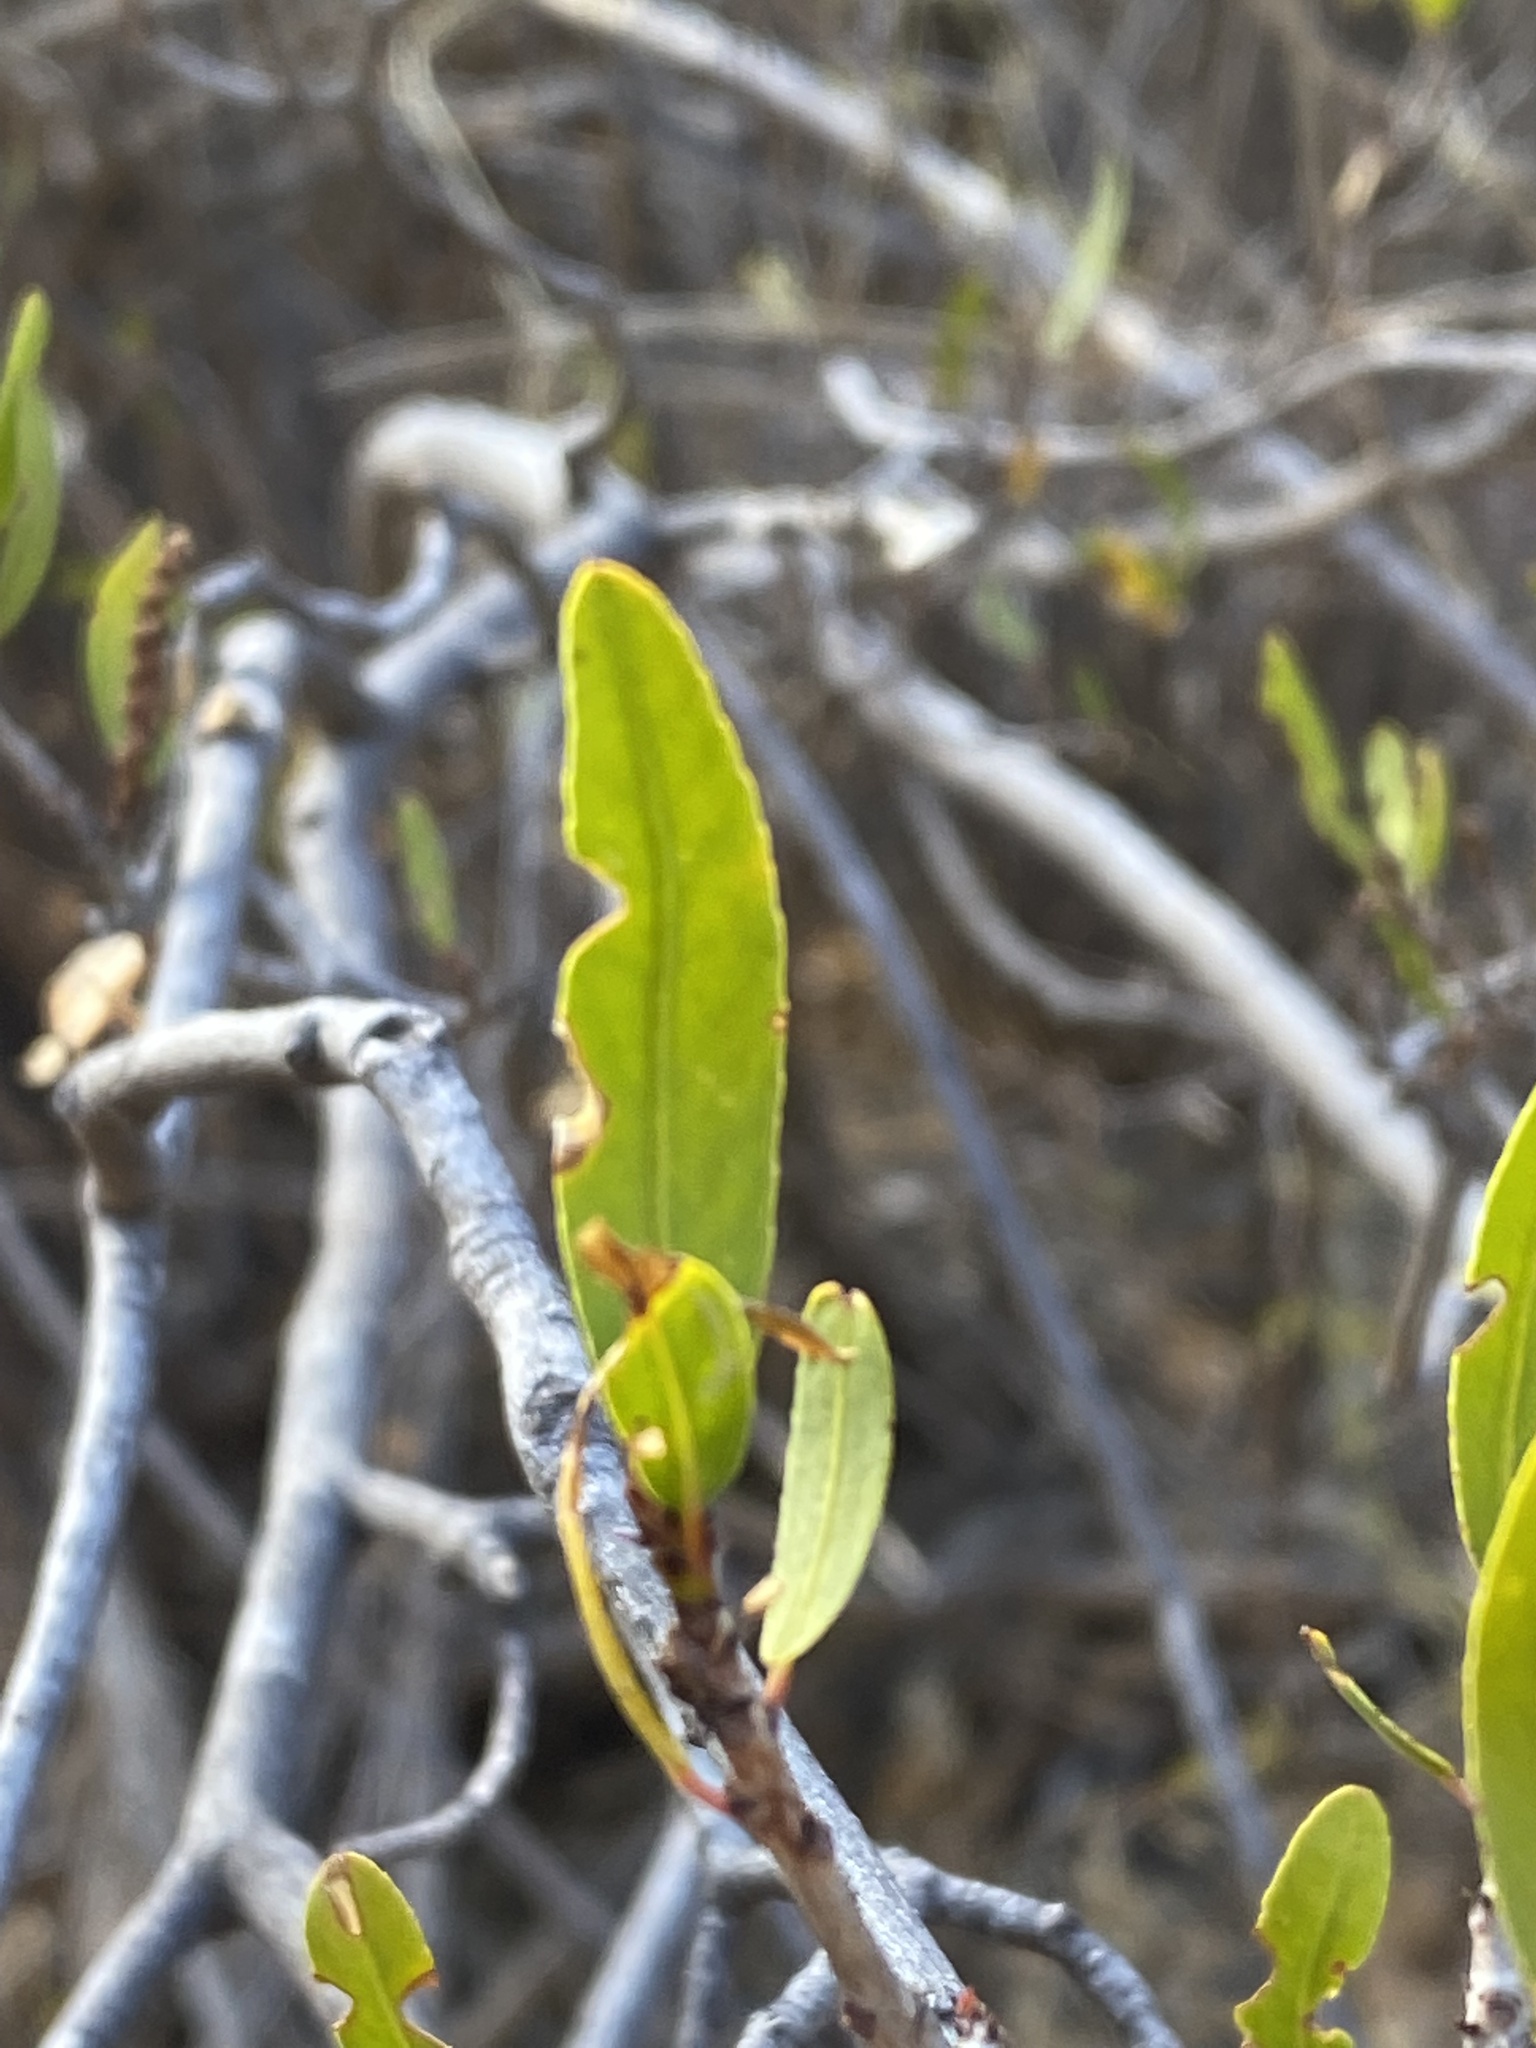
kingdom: Plantae
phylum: Tracheophyta
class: Magnoliopsida
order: Malpighiales
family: Euphorbiaceae
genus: Pleradenophora
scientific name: Pleradenophora bilocularis
